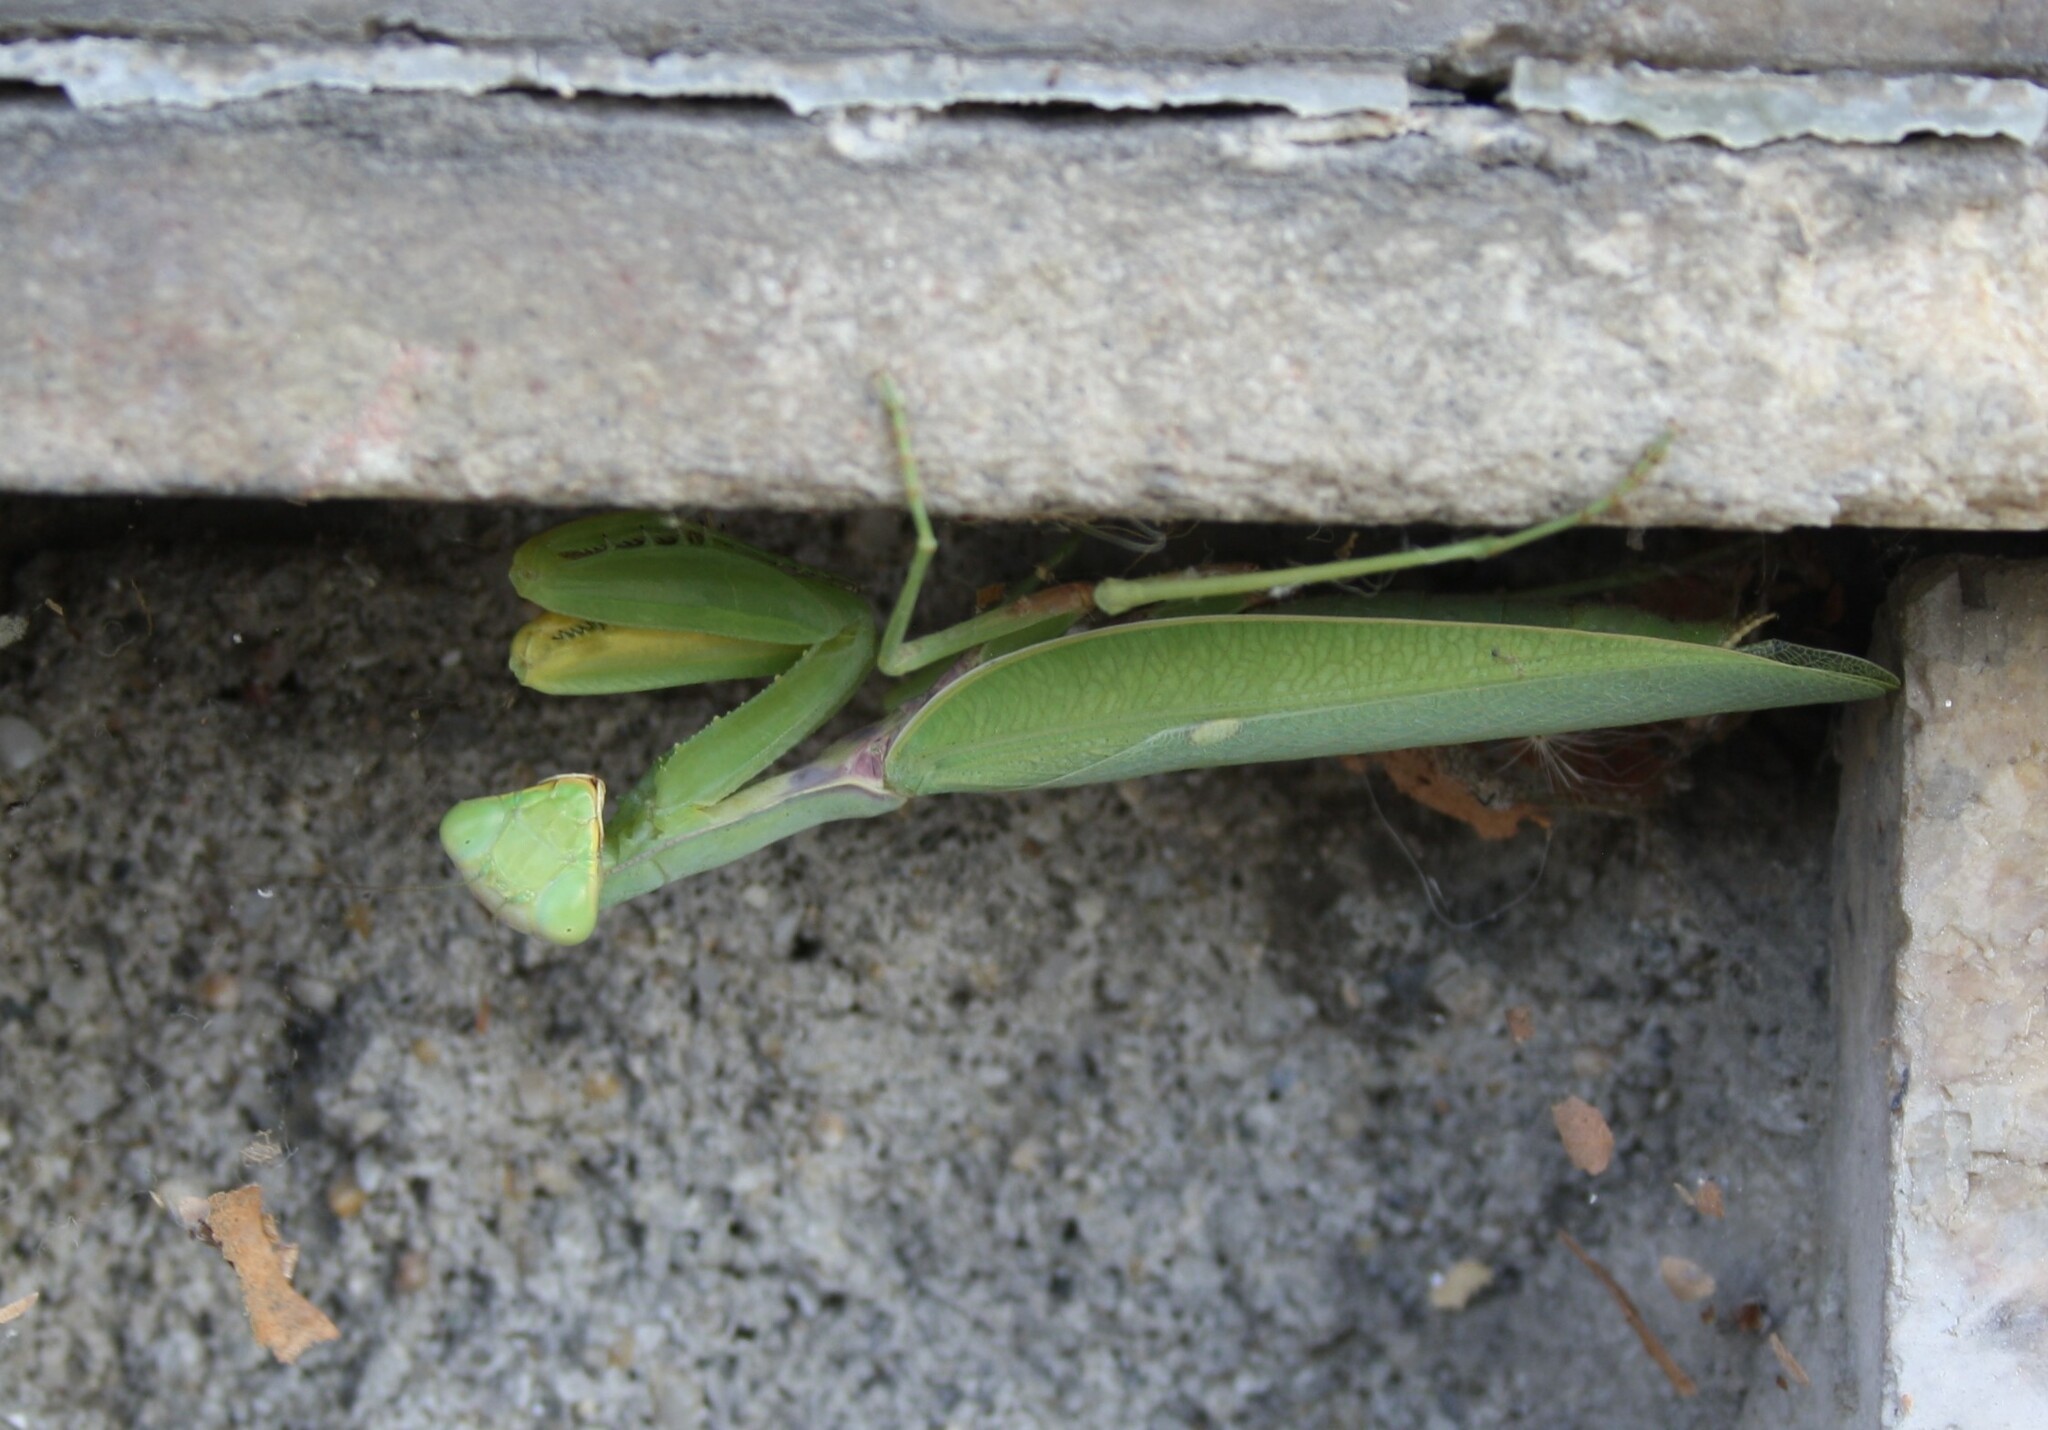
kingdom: Animalia
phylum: Arthropoda
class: Insecta
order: Mantodea
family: Mantidae
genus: Hierodula
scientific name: Hierodula transcaucasica
